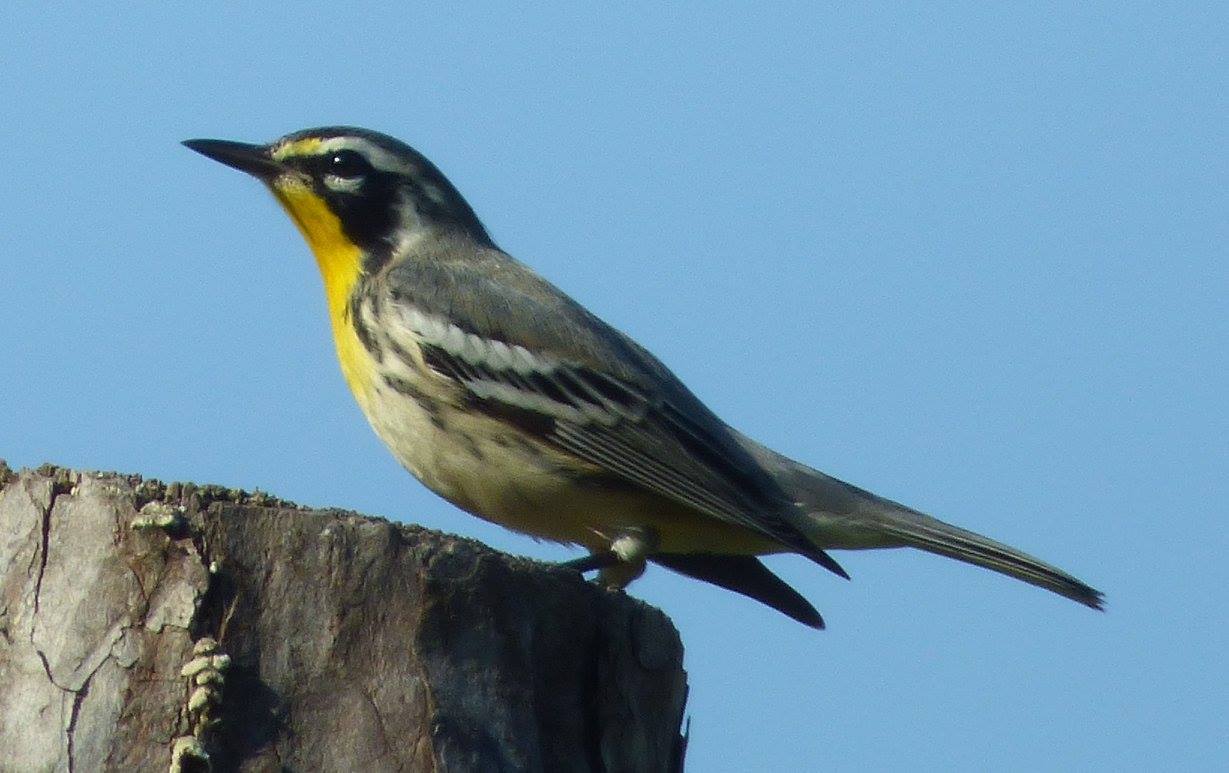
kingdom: Animalia
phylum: Chordata
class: Aves
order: Passeriformes
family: Parulidae
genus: Setophaga
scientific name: Setophaga dominica
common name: Yellow-throated warbler
